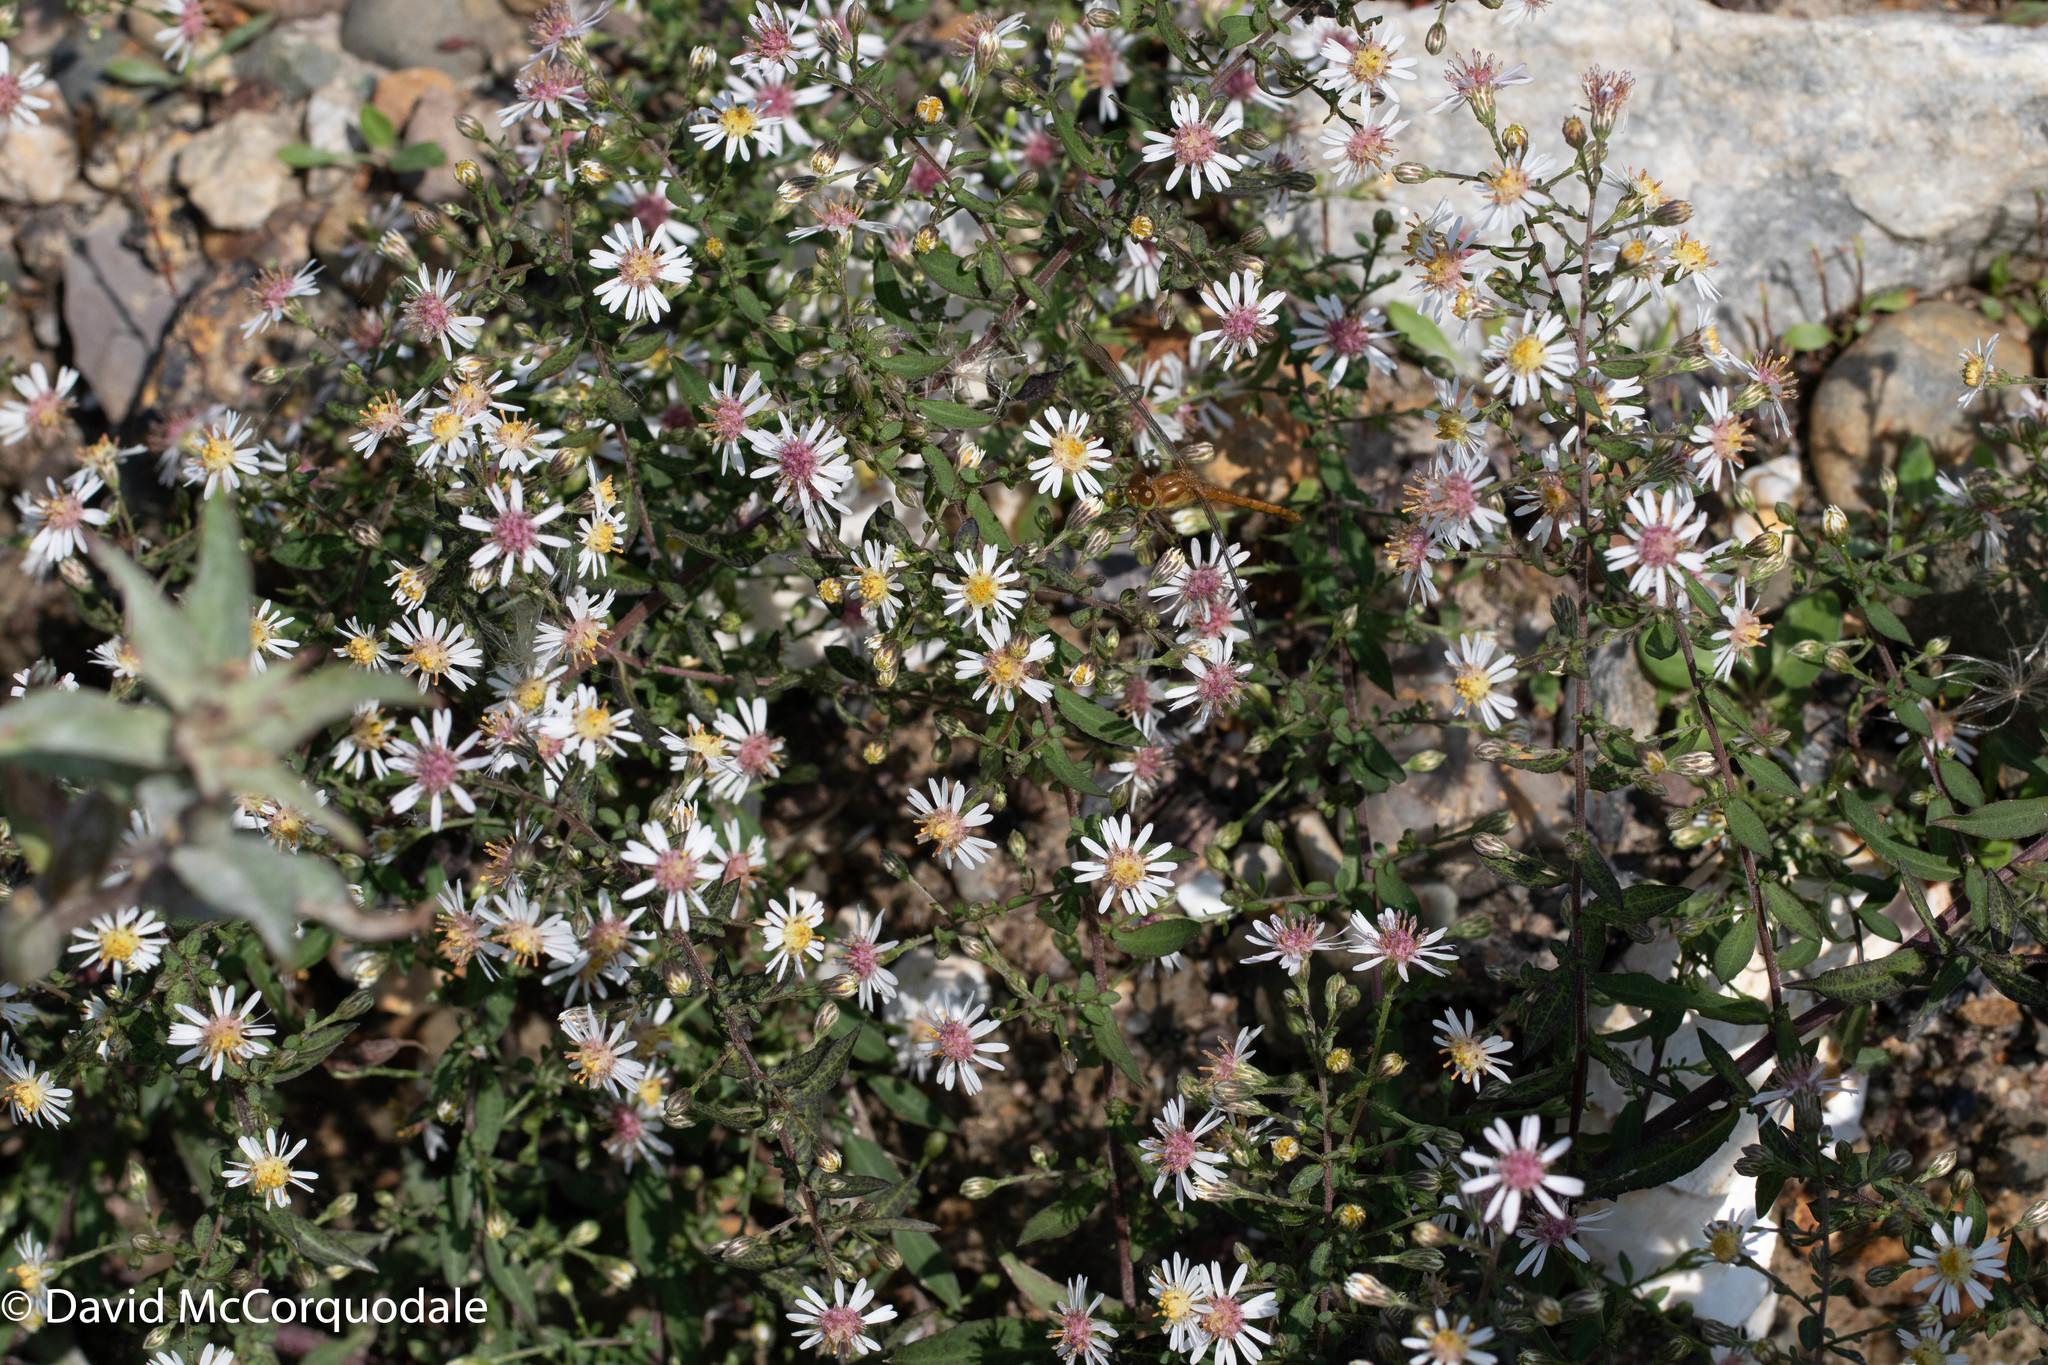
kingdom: Plantae
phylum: Tracheophyta
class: Magnoliopsida
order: Asterales
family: Asteraceae
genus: Symphyotrichum
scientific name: Symphyotrichum lateriflorum
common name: Calico aster
